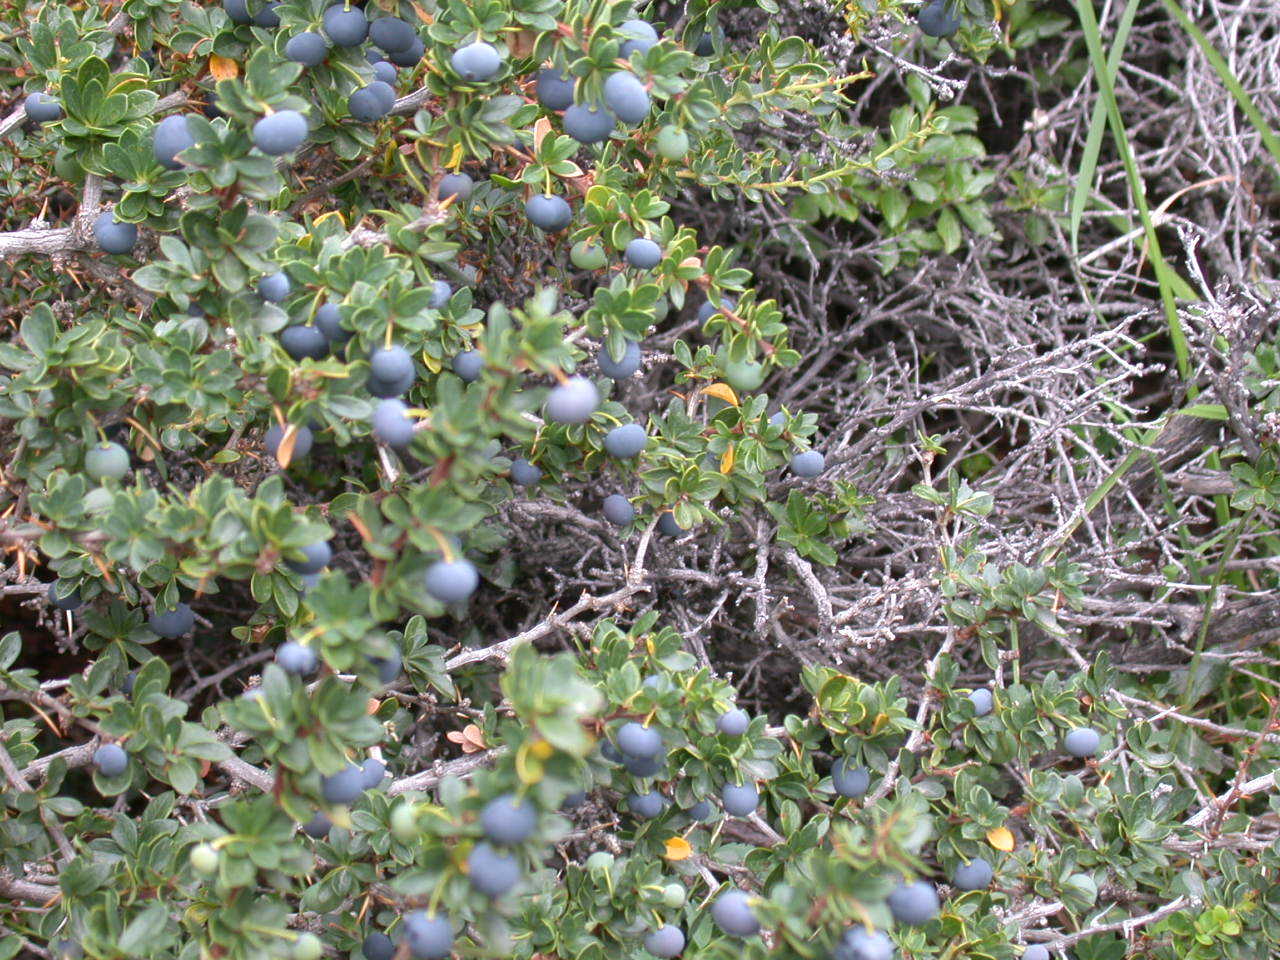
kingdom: Plantae
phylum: Tracheophyta
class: Magnoliopsida
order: Ranunculales
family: Berberidaceae
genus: Berberis
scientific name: Berberis microphylla
